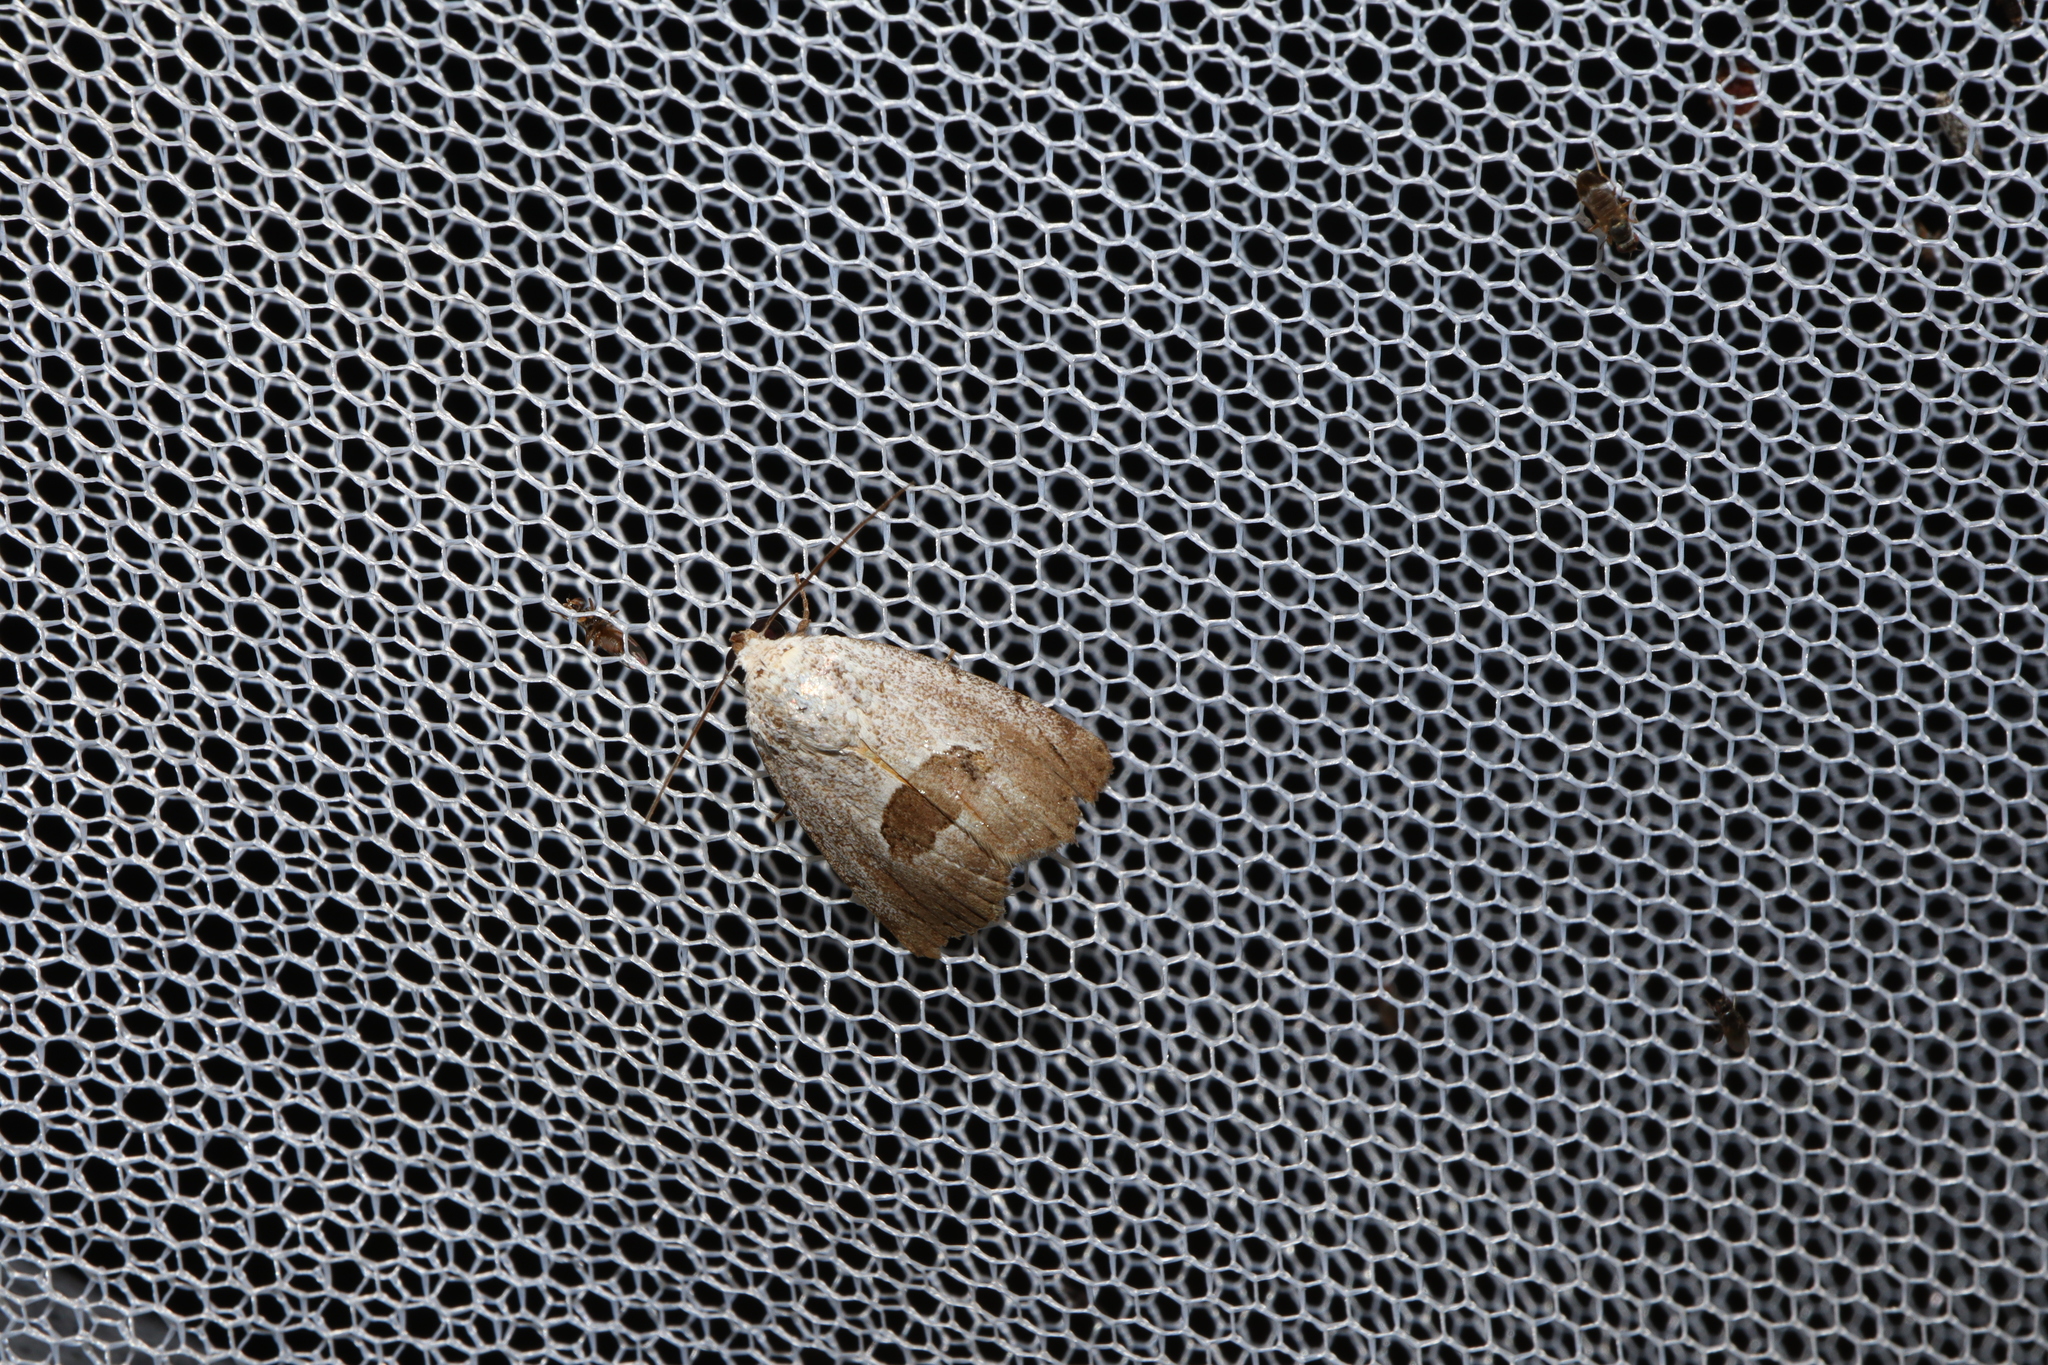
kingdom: Animalia
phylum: Arthropoda
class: Insecta
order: Lepidoptera
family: Nolidae
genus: Armactica
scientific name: Armactica conchidia
